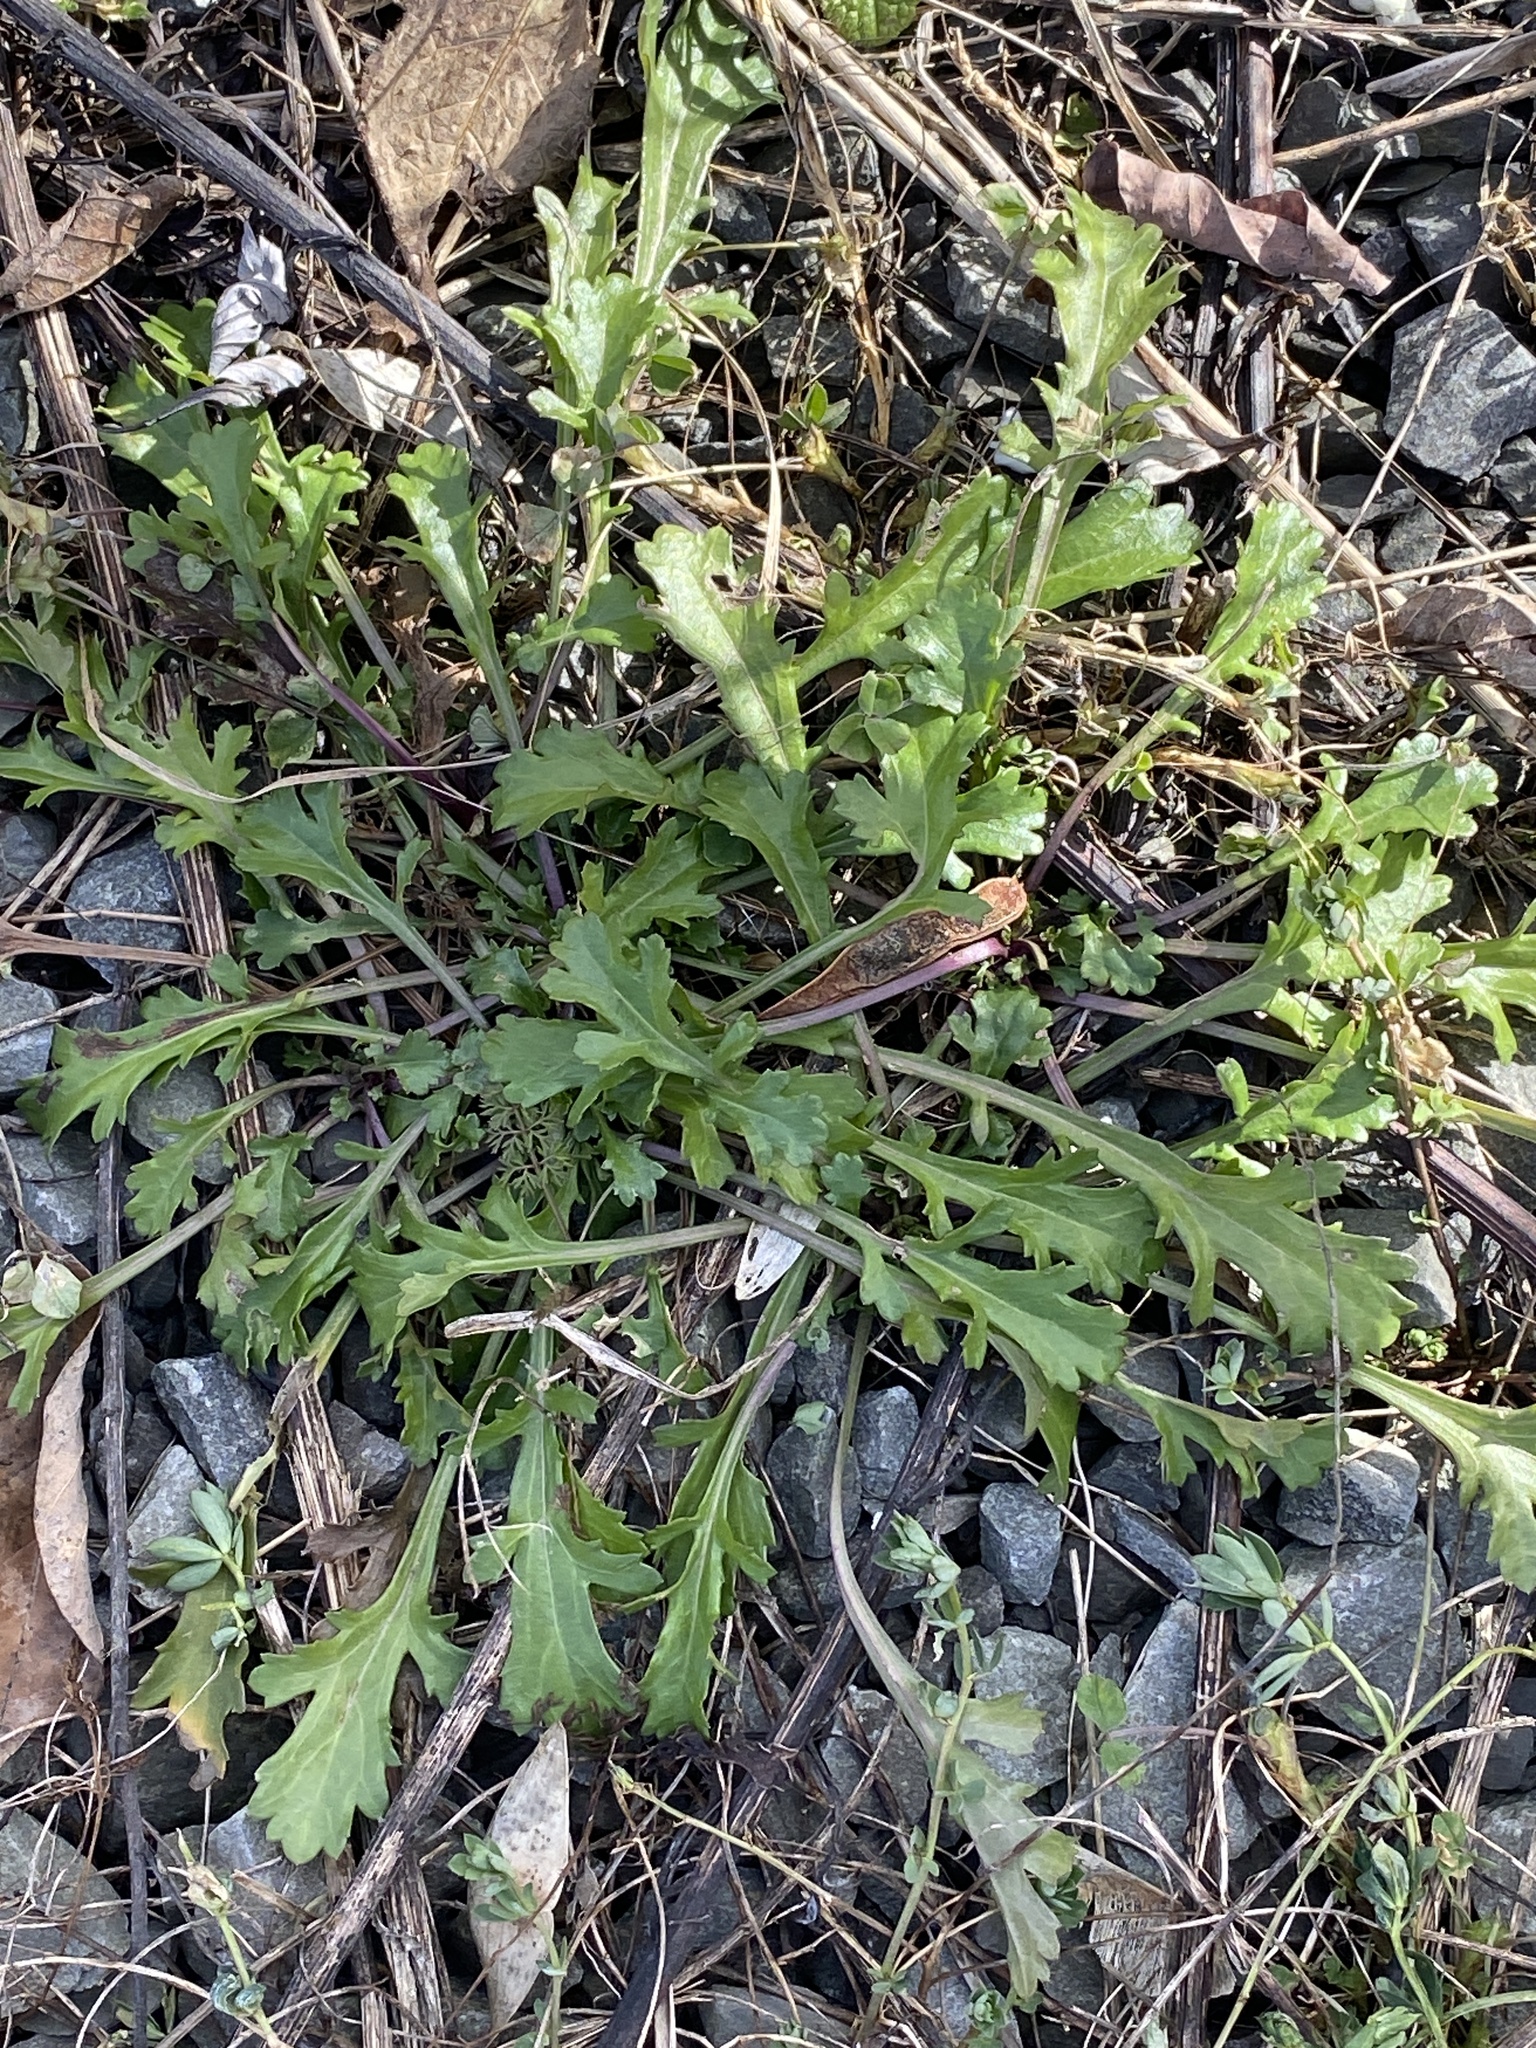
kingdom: Plantae
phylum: Tracheophyta
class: Magnoliopsida
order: Asterales
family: Asteraceae
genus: Leucanthemum
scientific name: Leucanthemum vulgare
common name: Oxeye daisy
